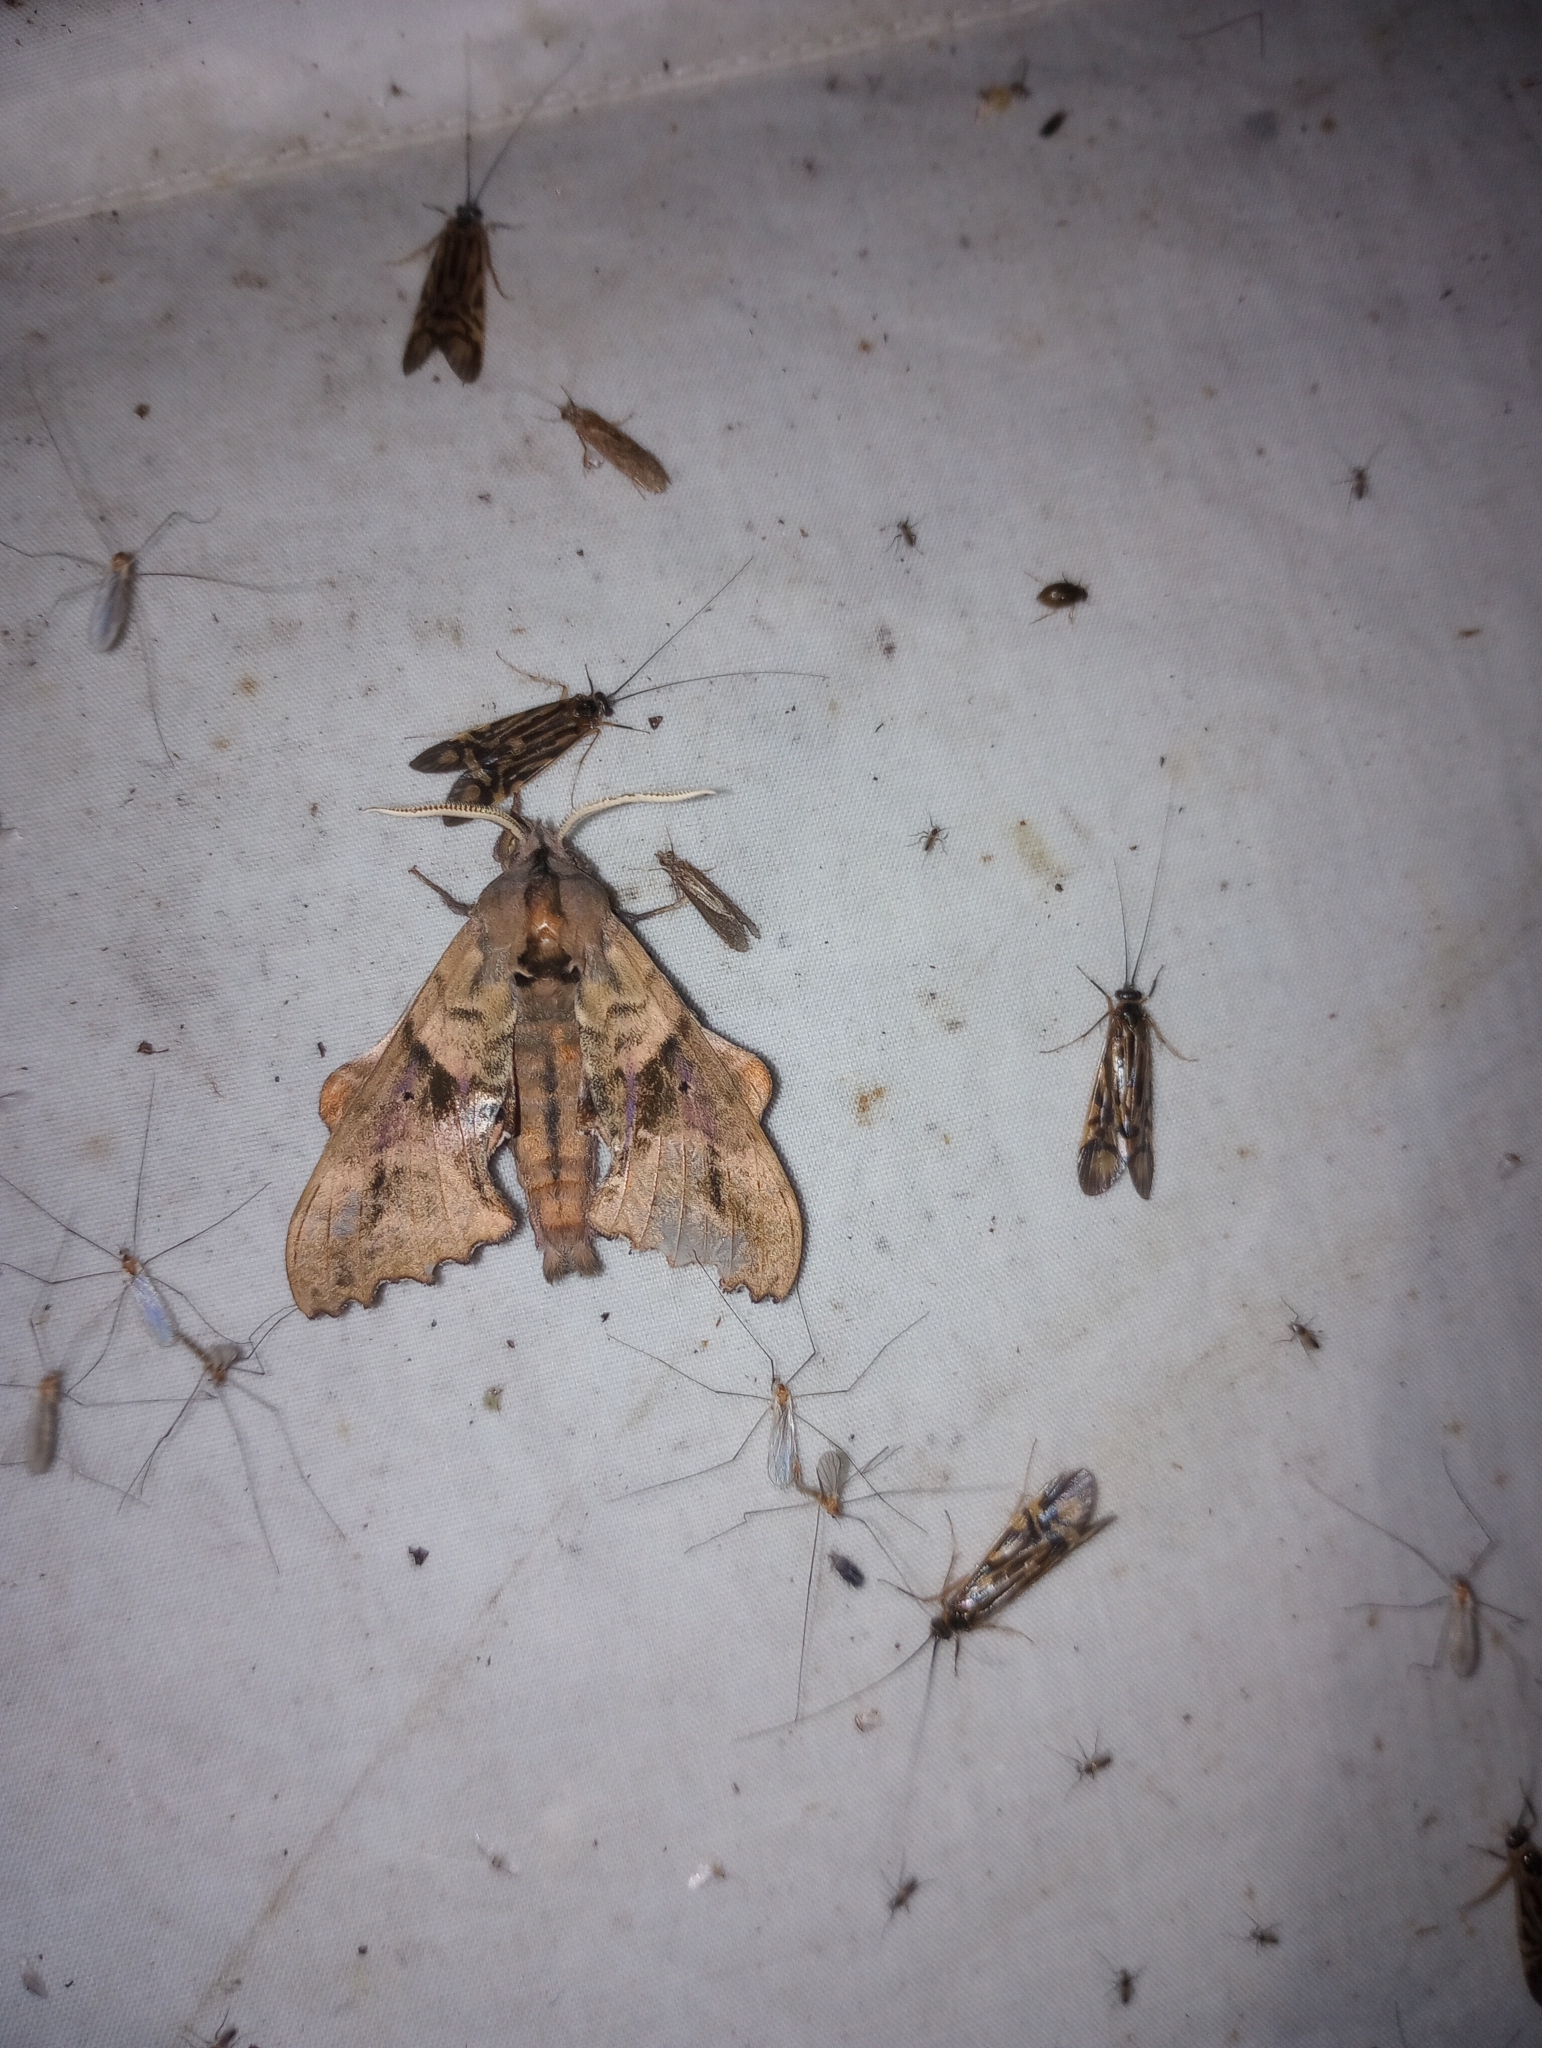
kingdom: Animalia
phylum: Arthropoda
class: Insecta
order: Lepidoptera
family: Sphingidae
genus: Paonias
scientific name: Paonias excaecata
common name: Blind-eyed sphinx
